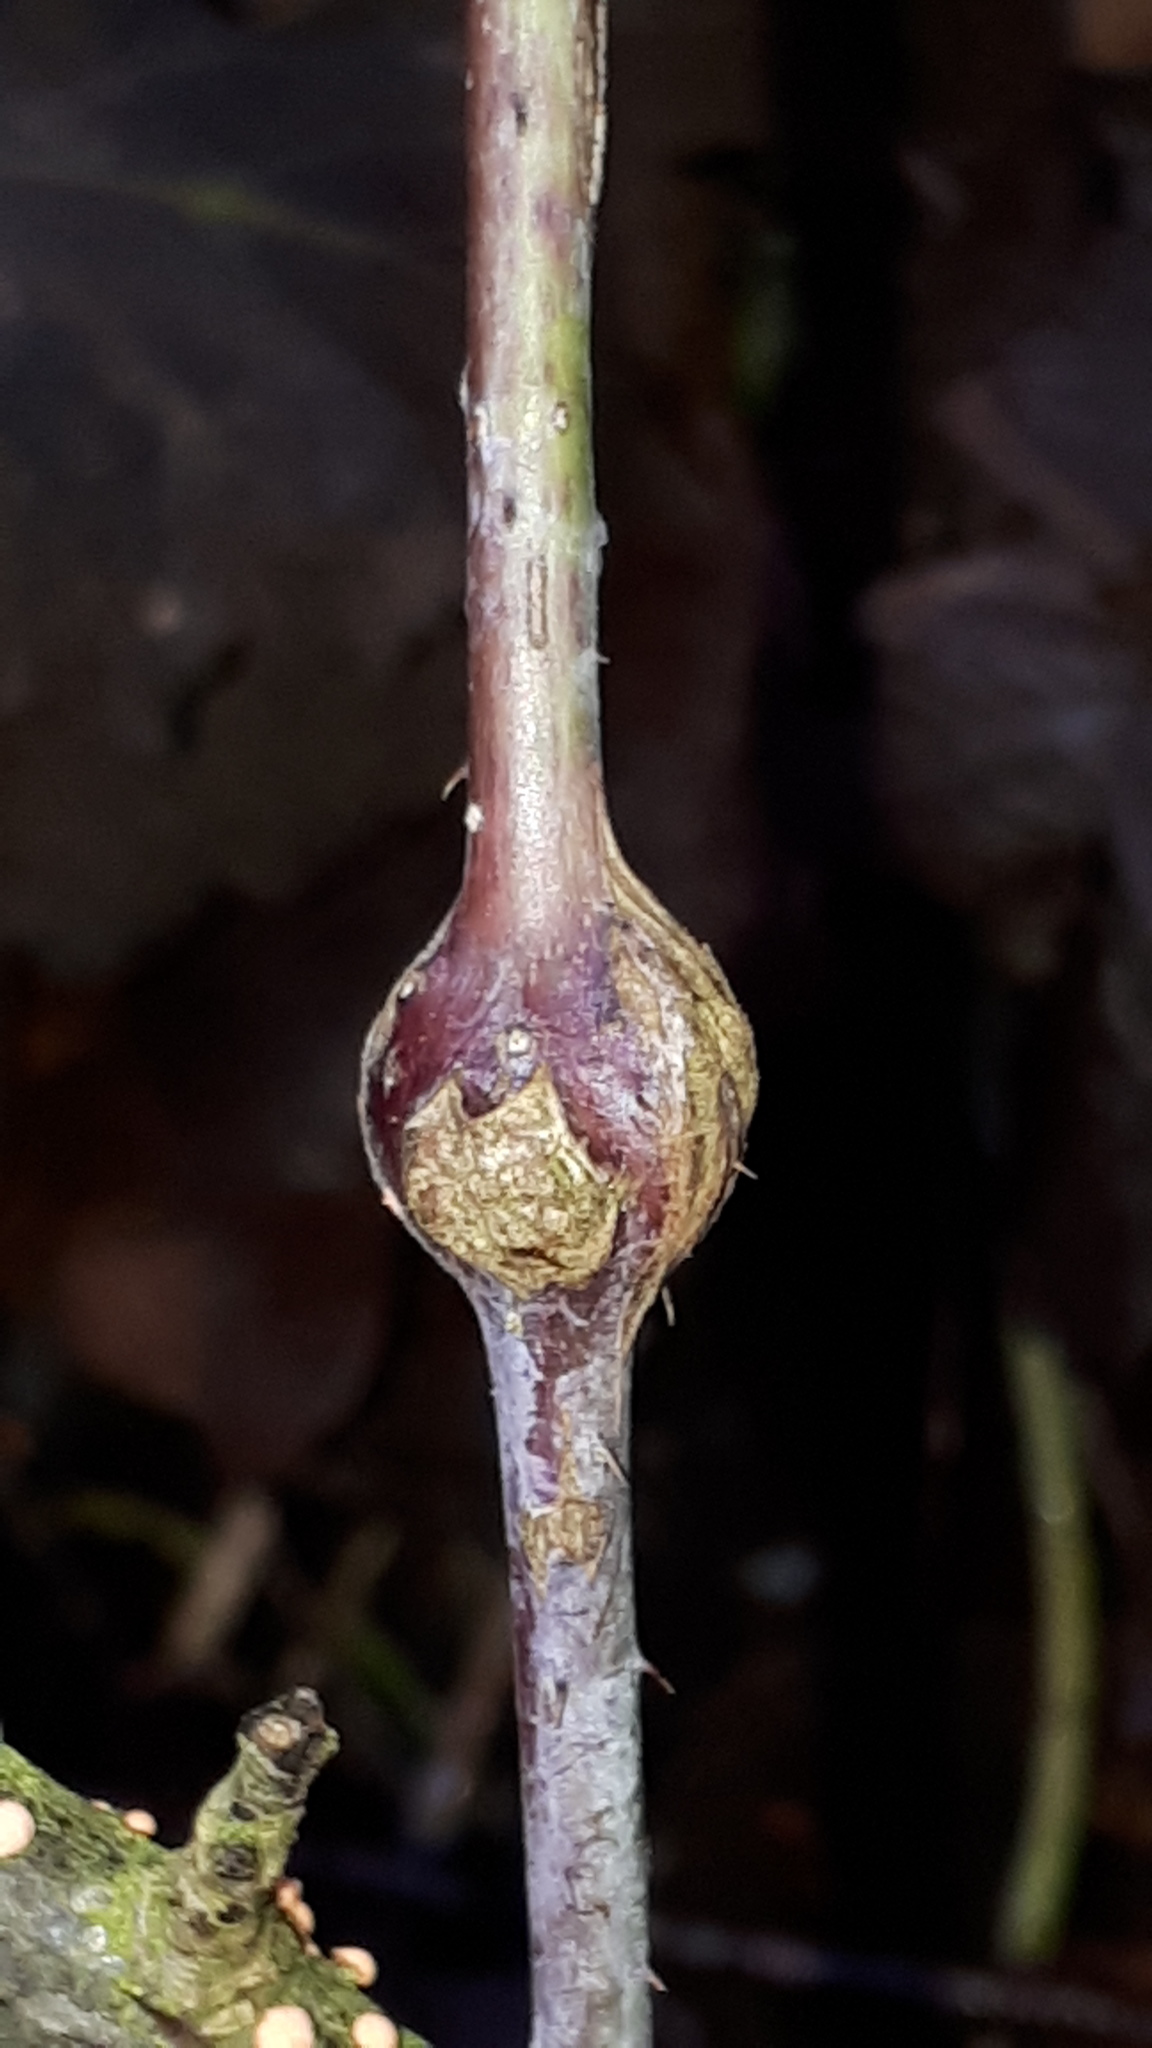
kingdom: Animalia
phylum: Arthropoda
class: Insecta
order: Diptera
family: Cecidomyiidae
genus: Lasioptera
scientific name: Lasioptera rubi
